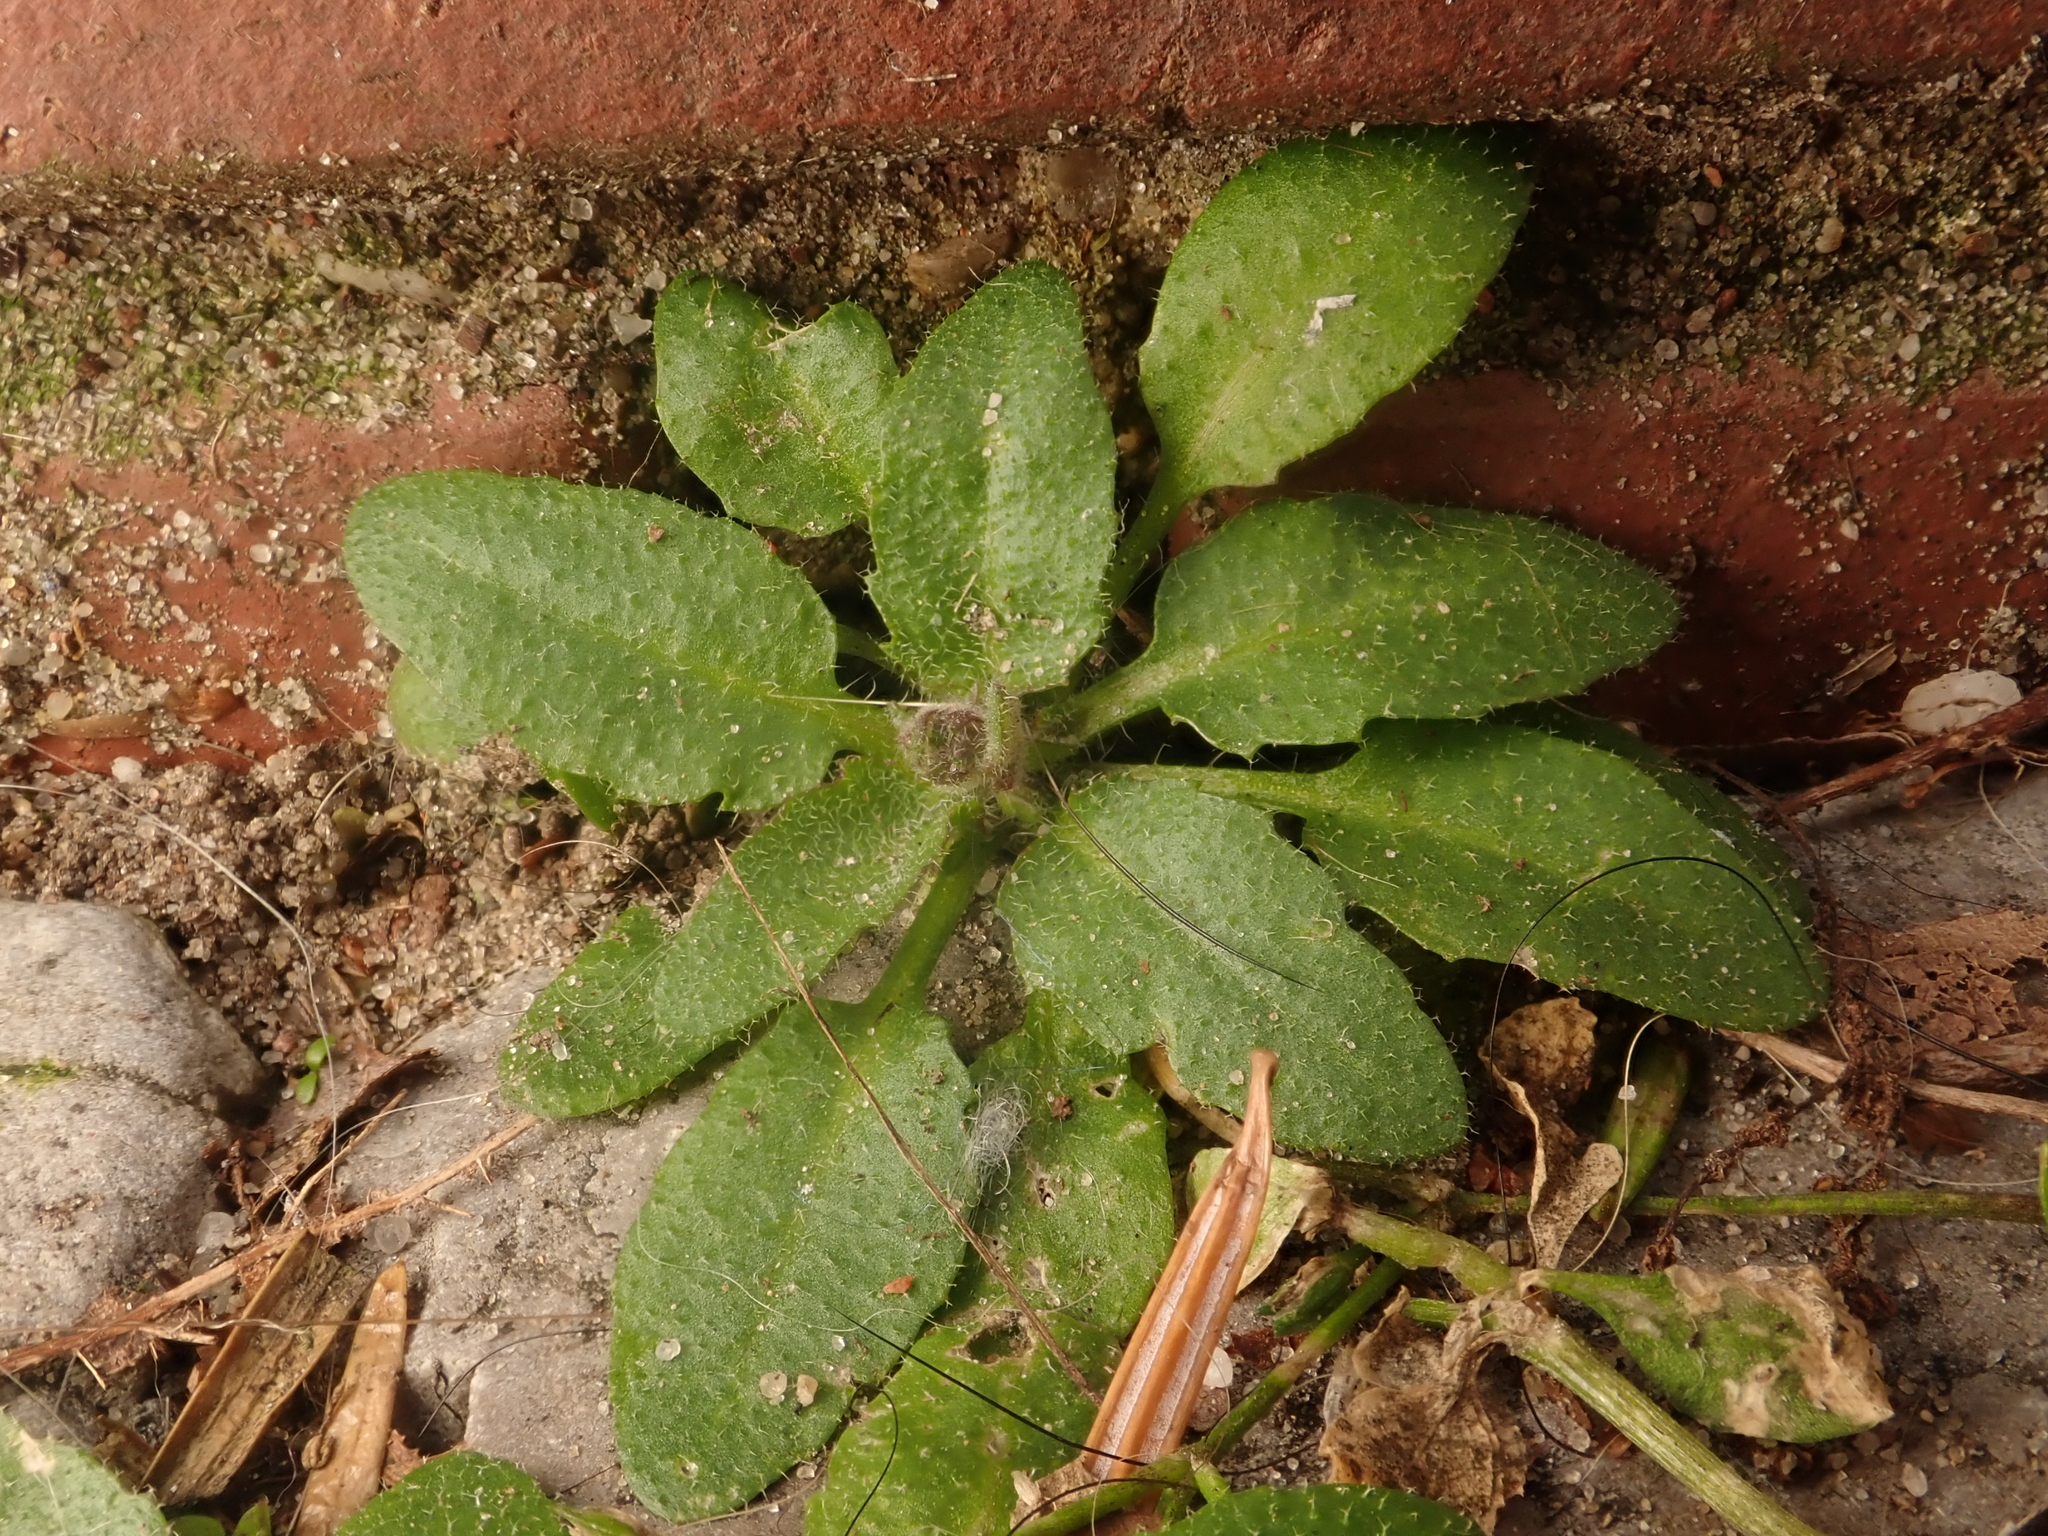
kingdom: Plantae
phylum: Tracheophyta
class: Magnoliopsida
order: Brassicales
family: Brassicaceae
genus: Arabidopsis
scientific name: Arabidopsis thaliana
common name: Thale cress
